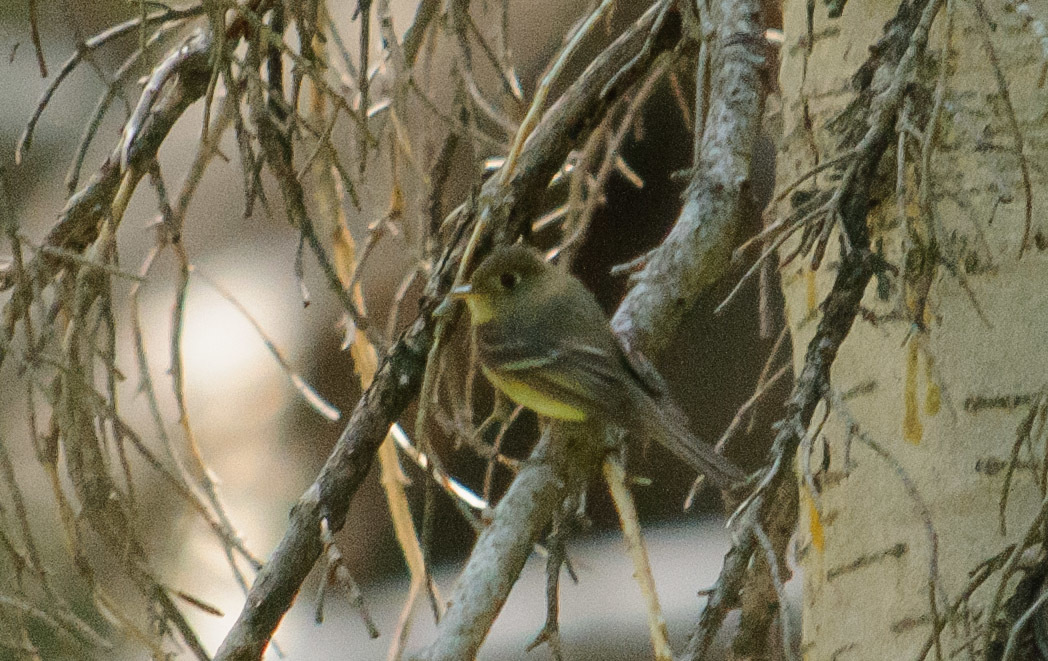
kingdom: Animalia
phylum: Chordata
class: Aves
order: Passeriformes
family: Tyrannidae
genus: Empidonax
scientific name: Empidonax difficilis
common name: Pacific-slope flycatcher
